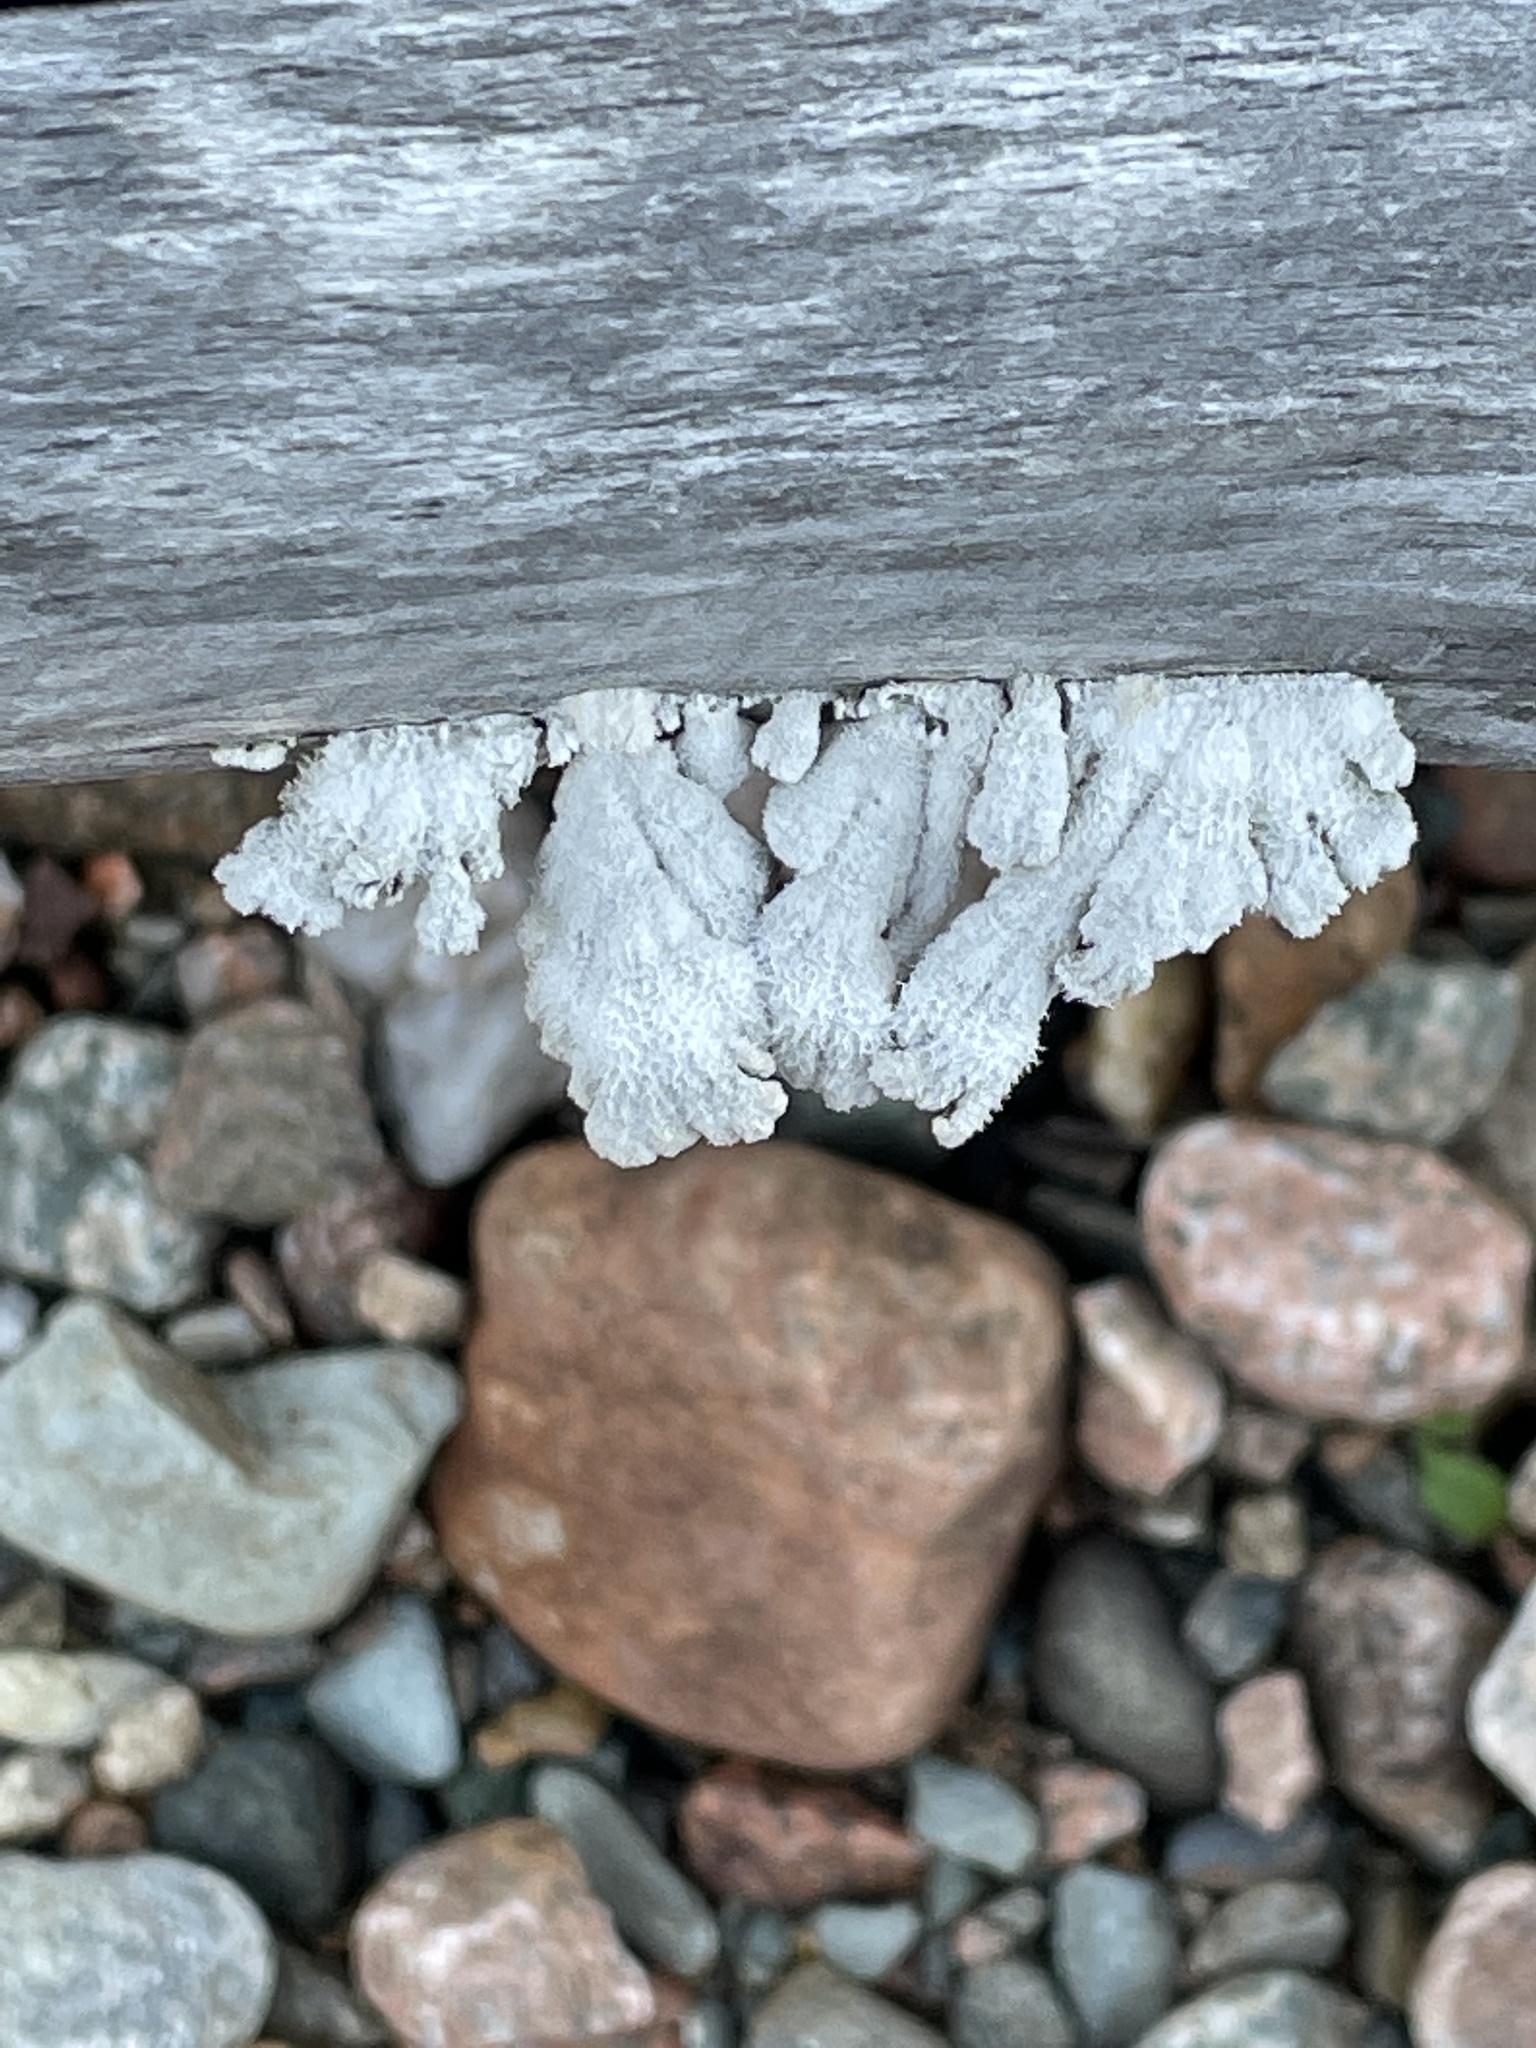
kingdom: Fungi
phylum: Basidiomycota
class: Agaricomycetes
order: Agaricales
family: Schizophyllaceae
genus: Schizophyllum
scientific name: Schizophyllum commune
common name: Common porecrust
